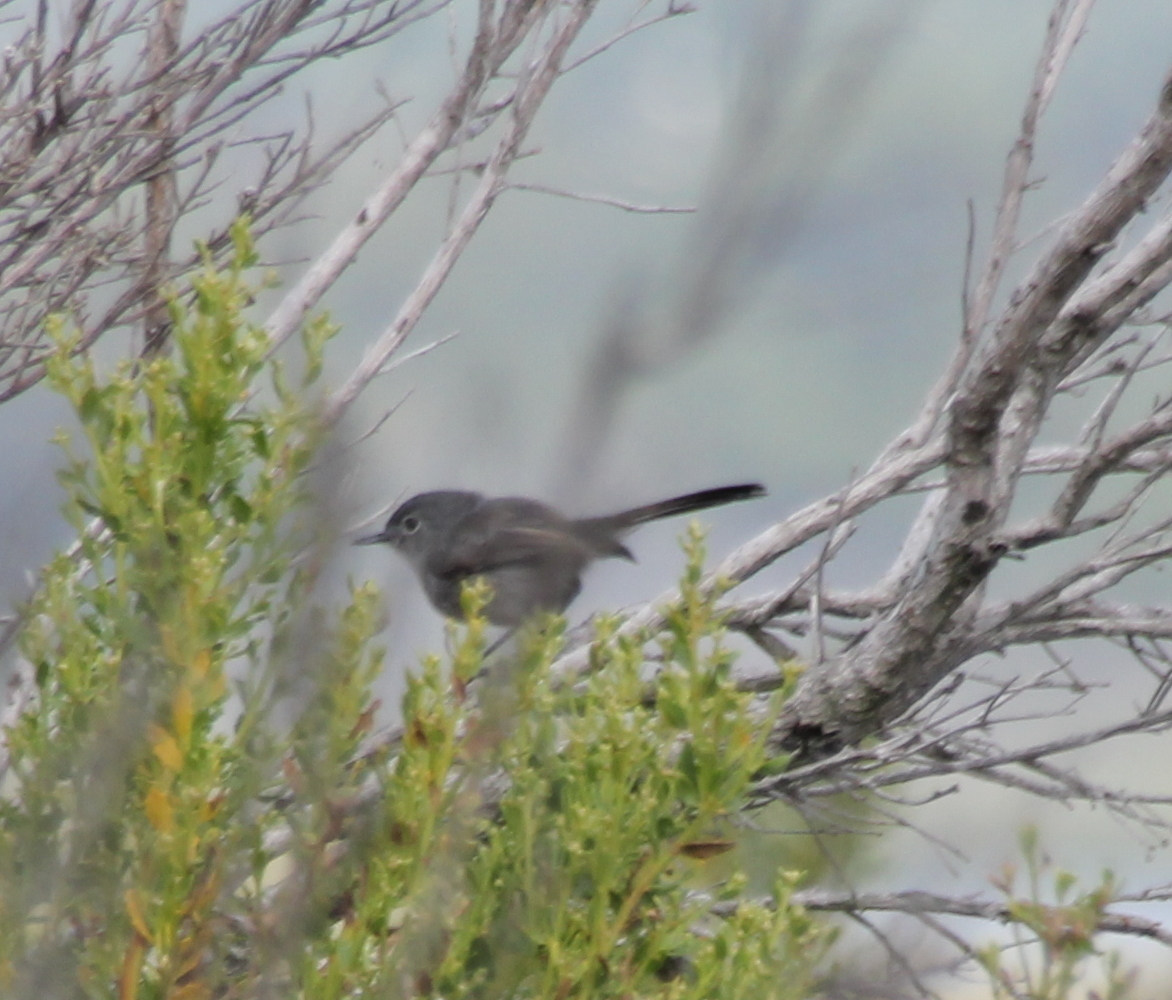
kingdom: Animalia
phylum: Chordata
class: Aves
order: Passeriformes
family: Polioptilidae
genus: Polioptila
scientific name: Polioptila californica
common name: California gnatcatcher
